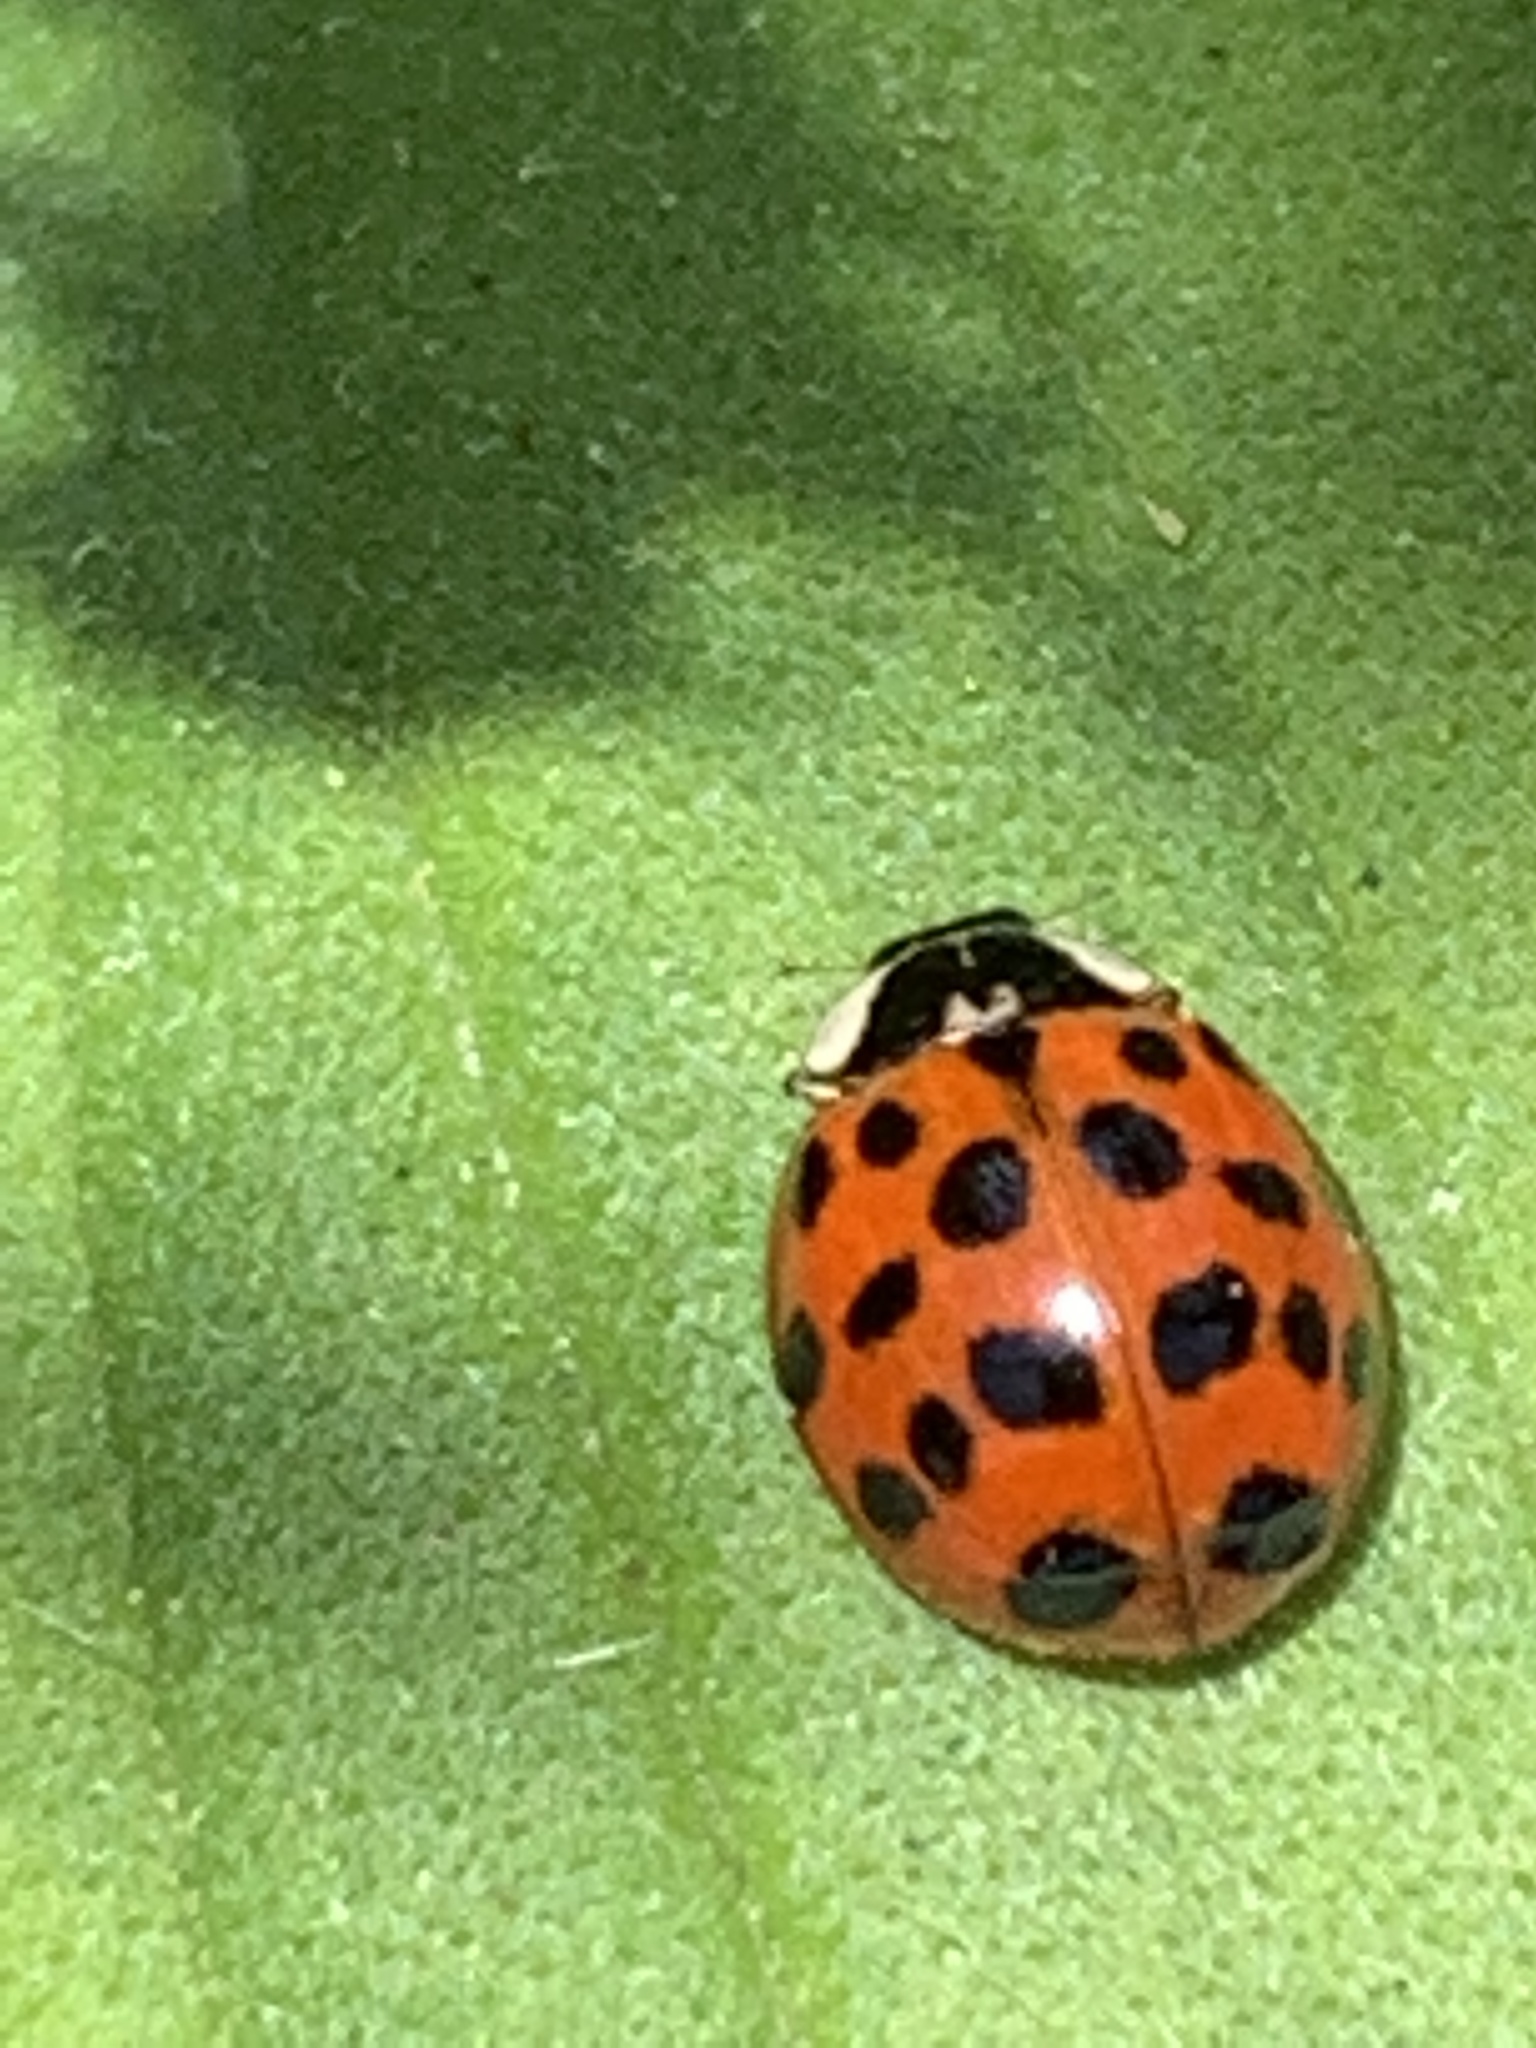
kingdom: Animalia
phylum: Arthropoda
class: Insecta
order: Coleoptera
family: Coccinellidae
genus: Harmonia
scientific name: Harmonia axyridis
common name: Harlequin ladybird
